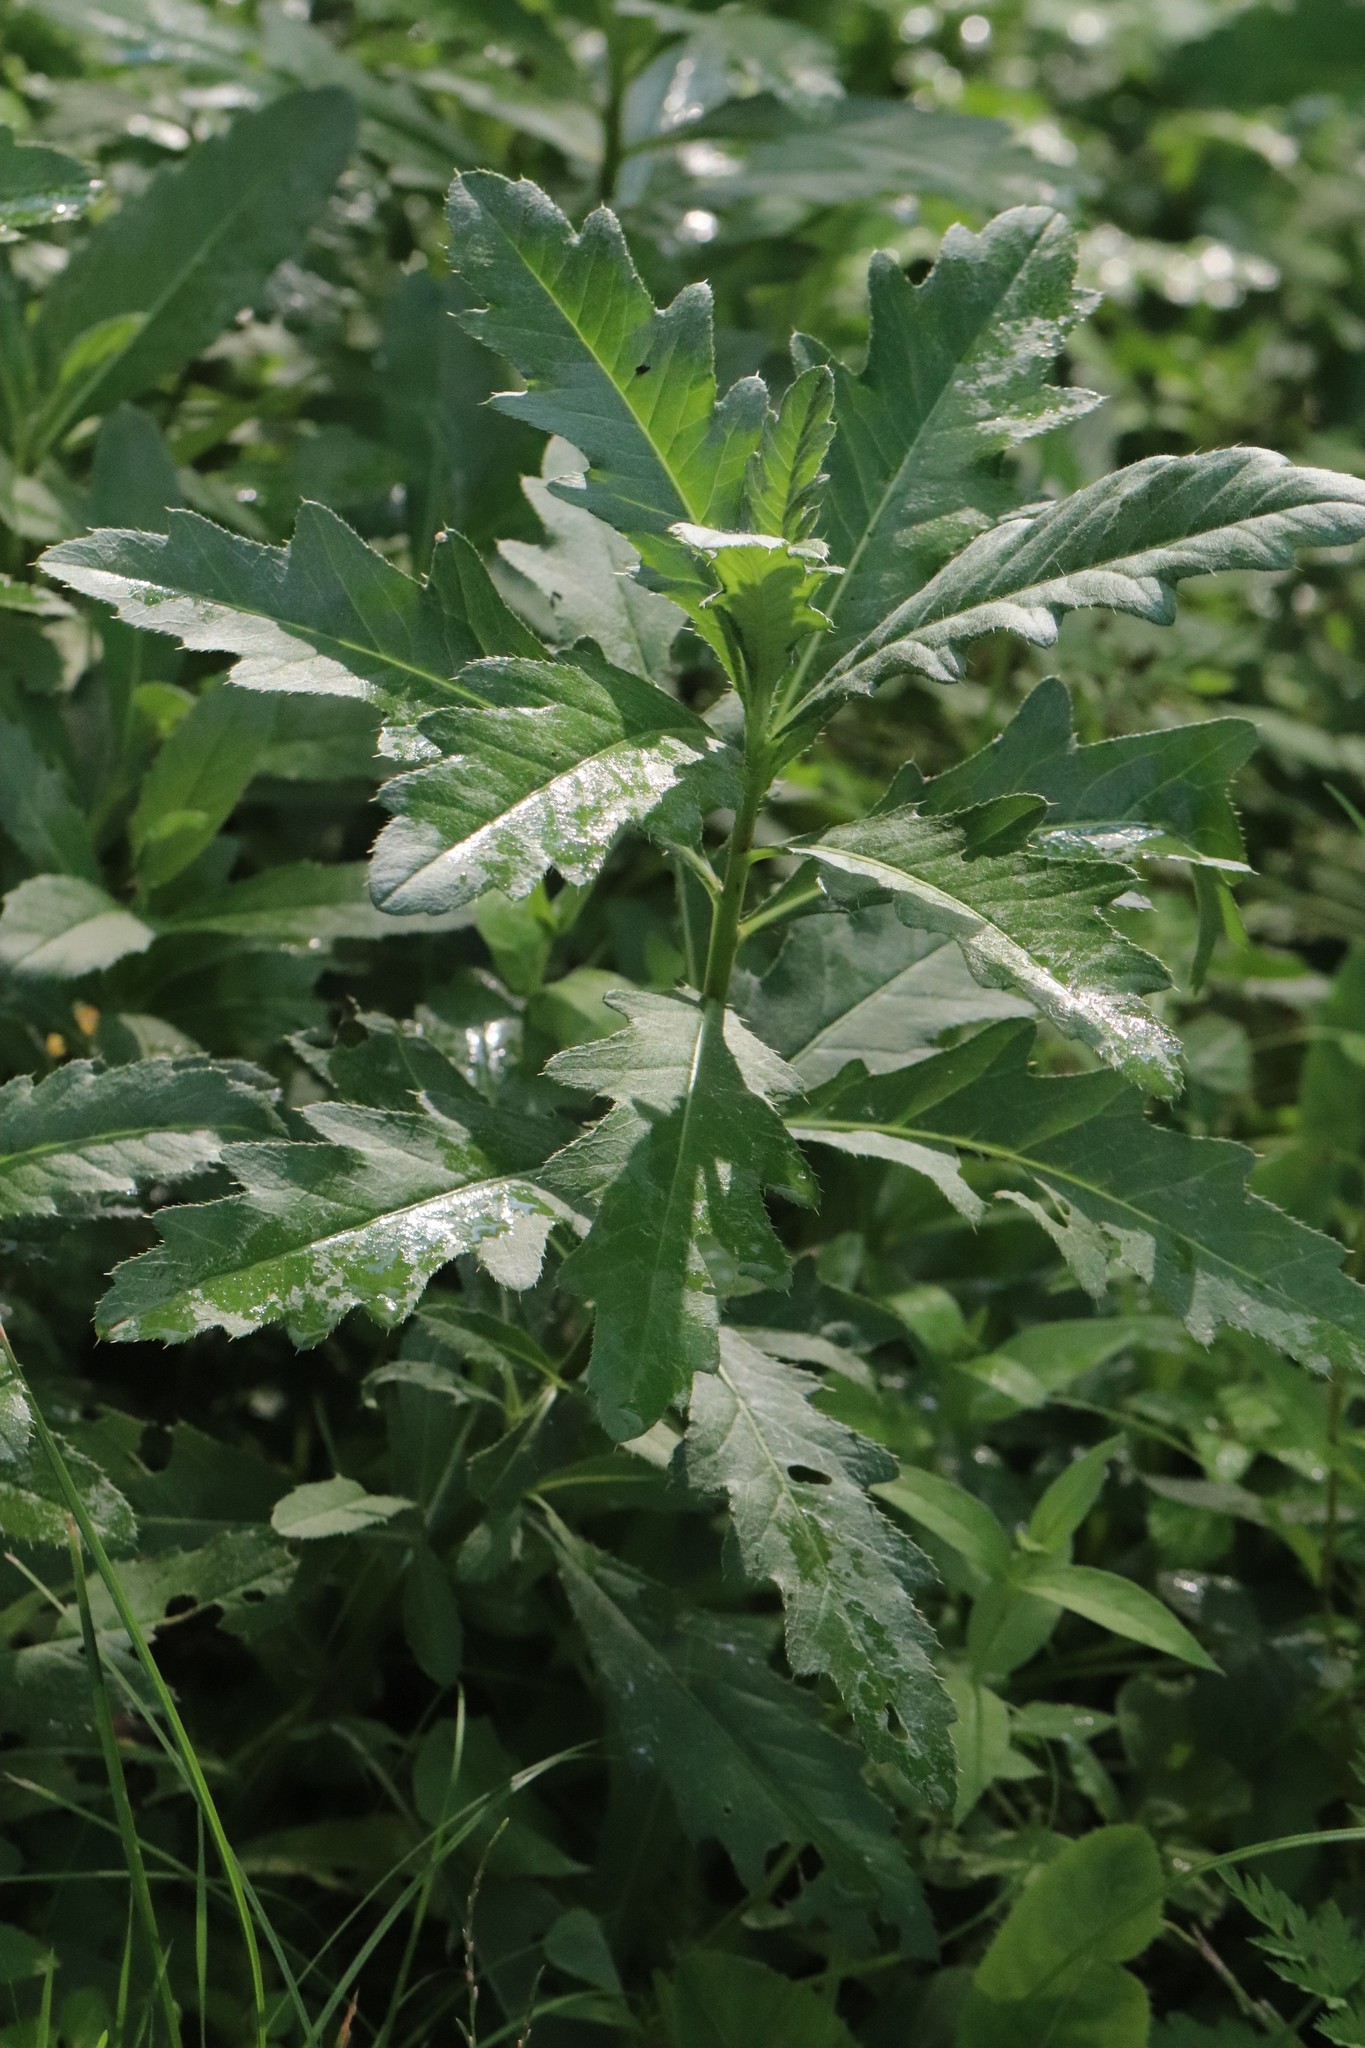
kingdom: Plantae
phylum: Tracheophyta
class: Magnoliopsida
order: Asterales
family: Asteraceae
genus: Cirsium
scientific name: Cirsium arvense
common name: Creeping thistle
